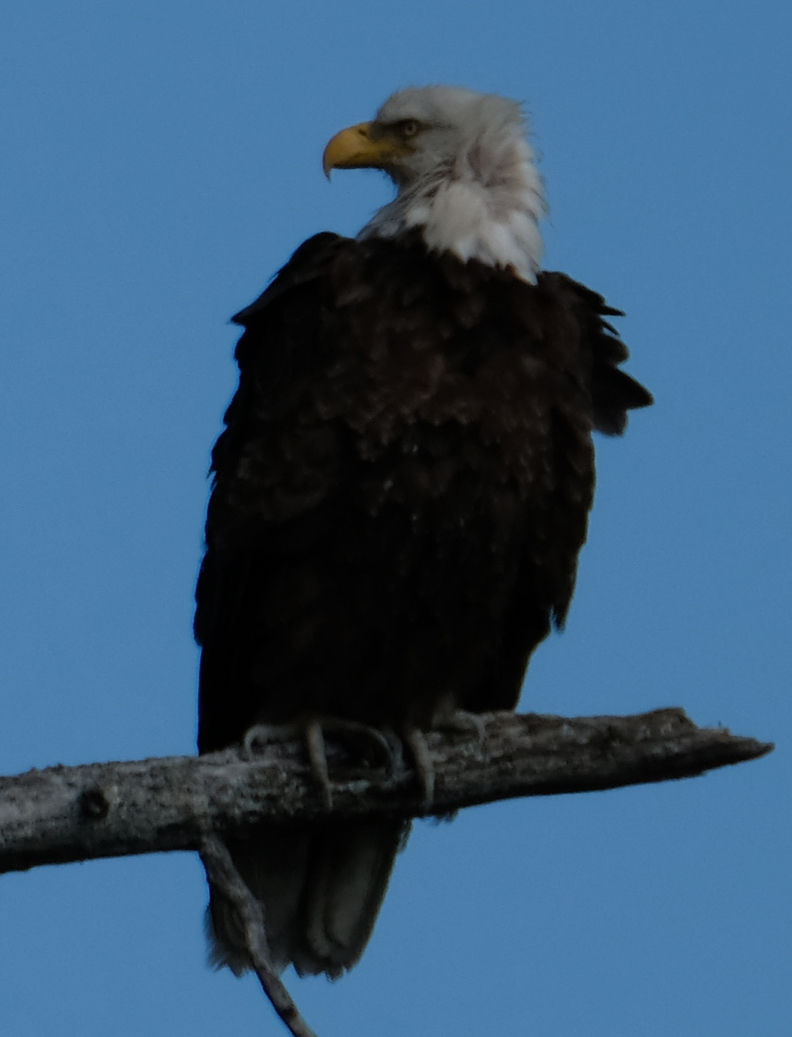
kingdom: Animalia
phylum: Chordata
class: Aves
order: Accipitriformes
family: Accipitridae
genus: Haliaeetus
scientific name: Haliaeetus leucocephalus
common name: Bald eagle
